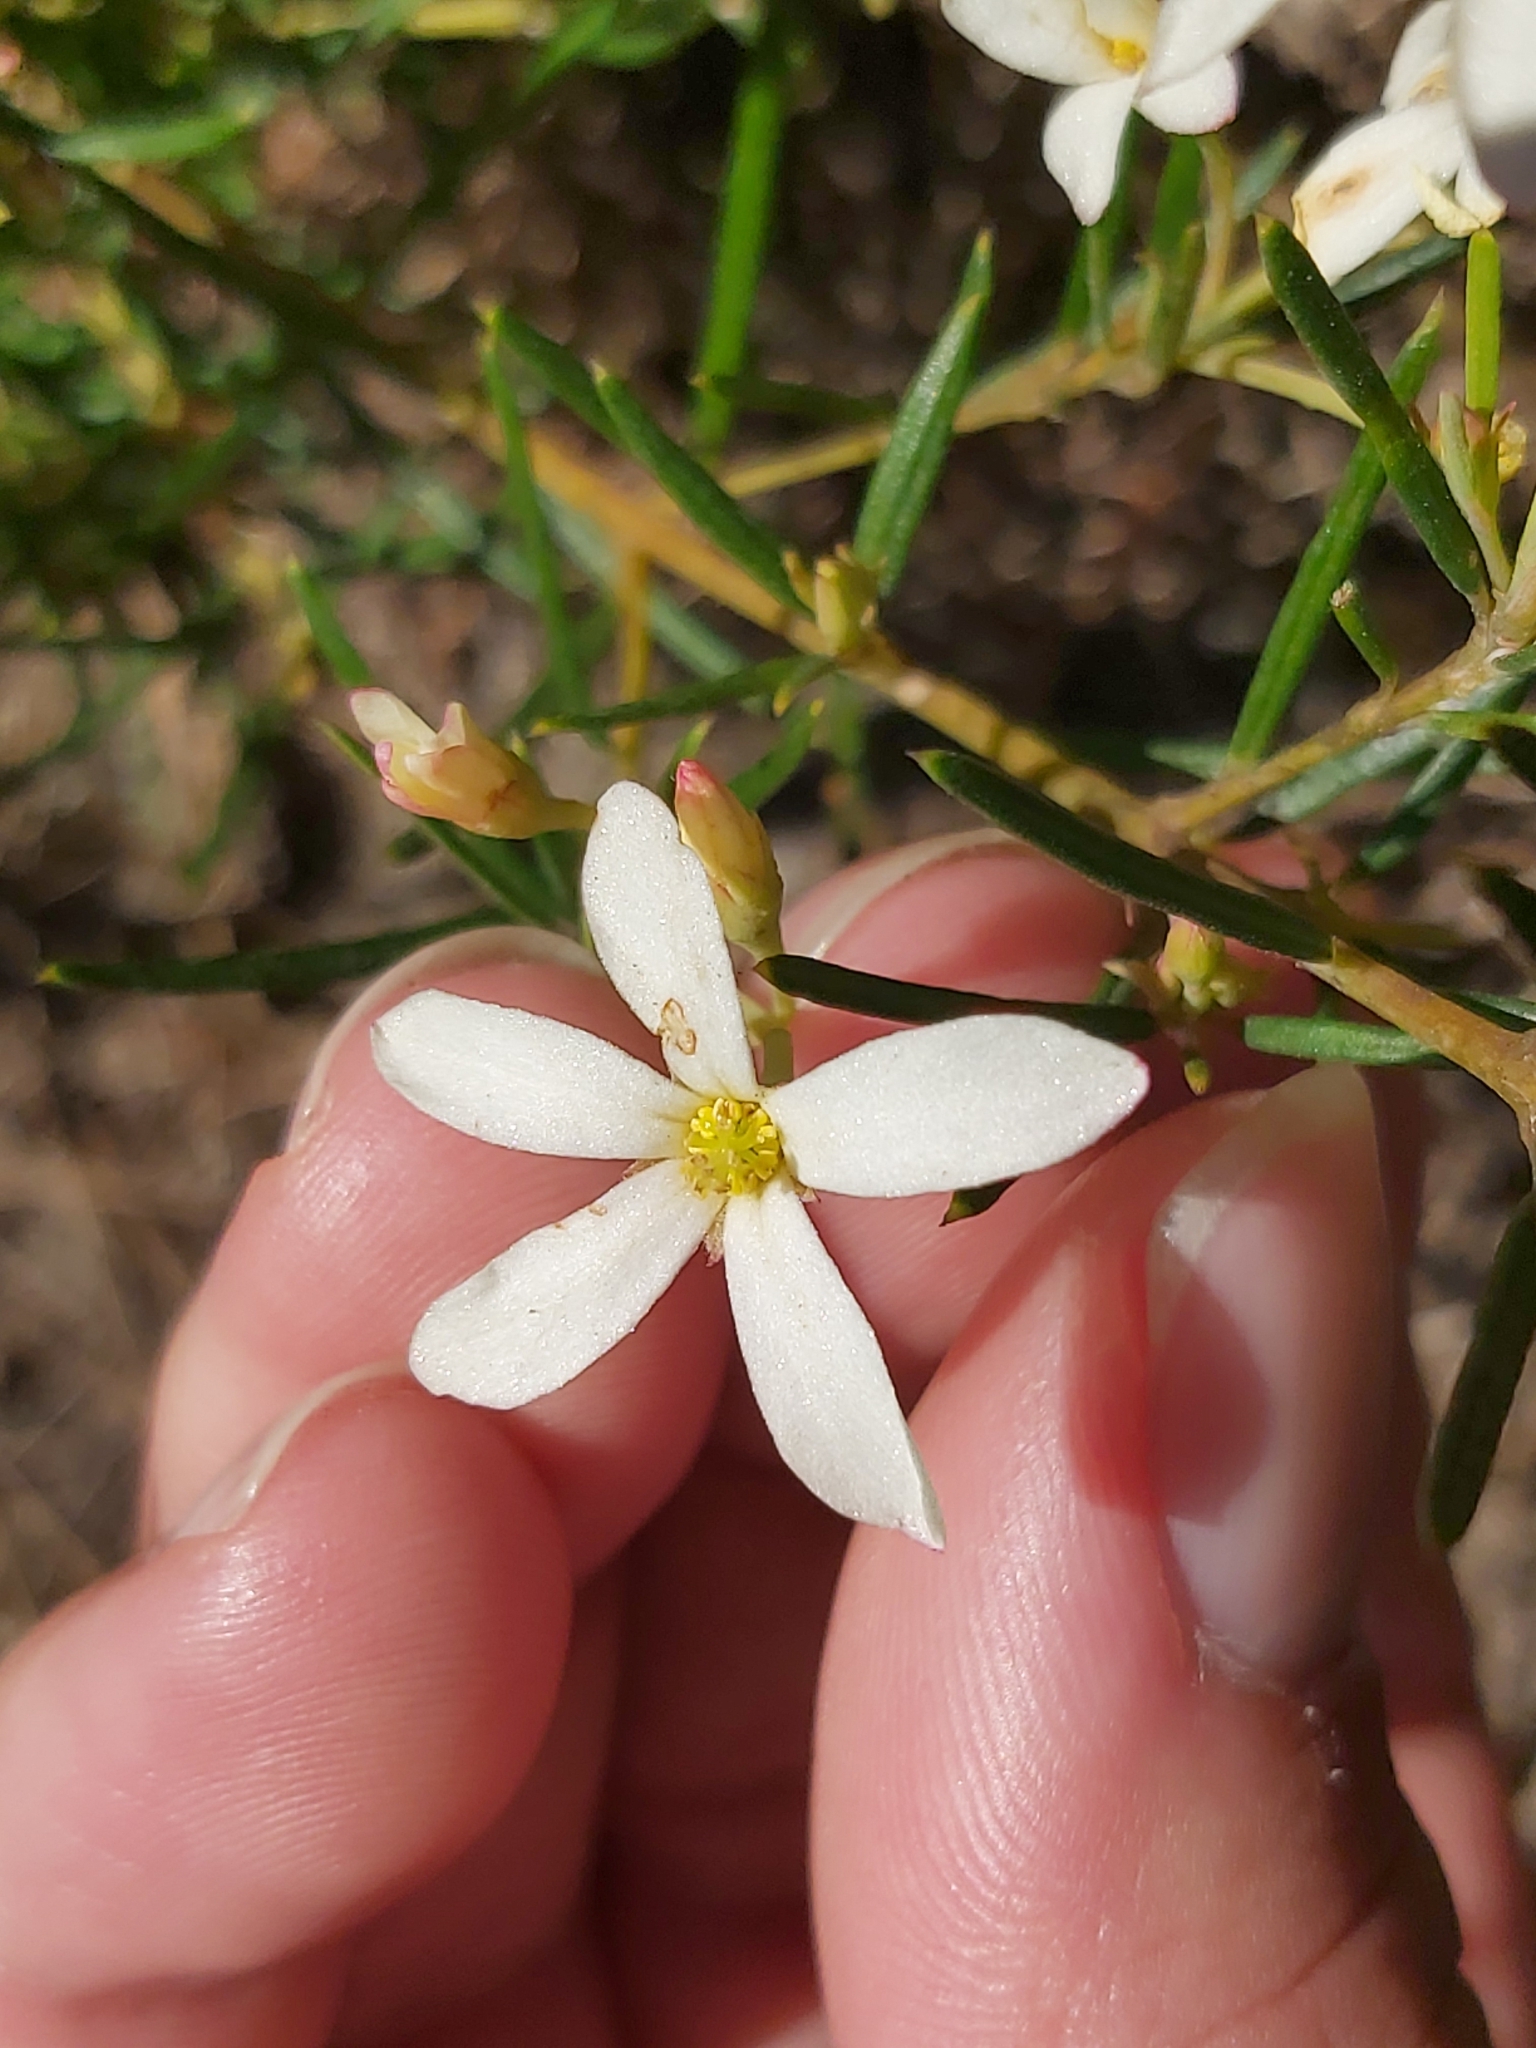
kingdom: Plantae
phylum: Tracheophyta
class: Magnoliopsida
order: Malpighiales
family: Euphorbiaceae
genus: Ricinocarpos
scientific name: Ricinocarpos pinifolius
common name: Weddingbush
